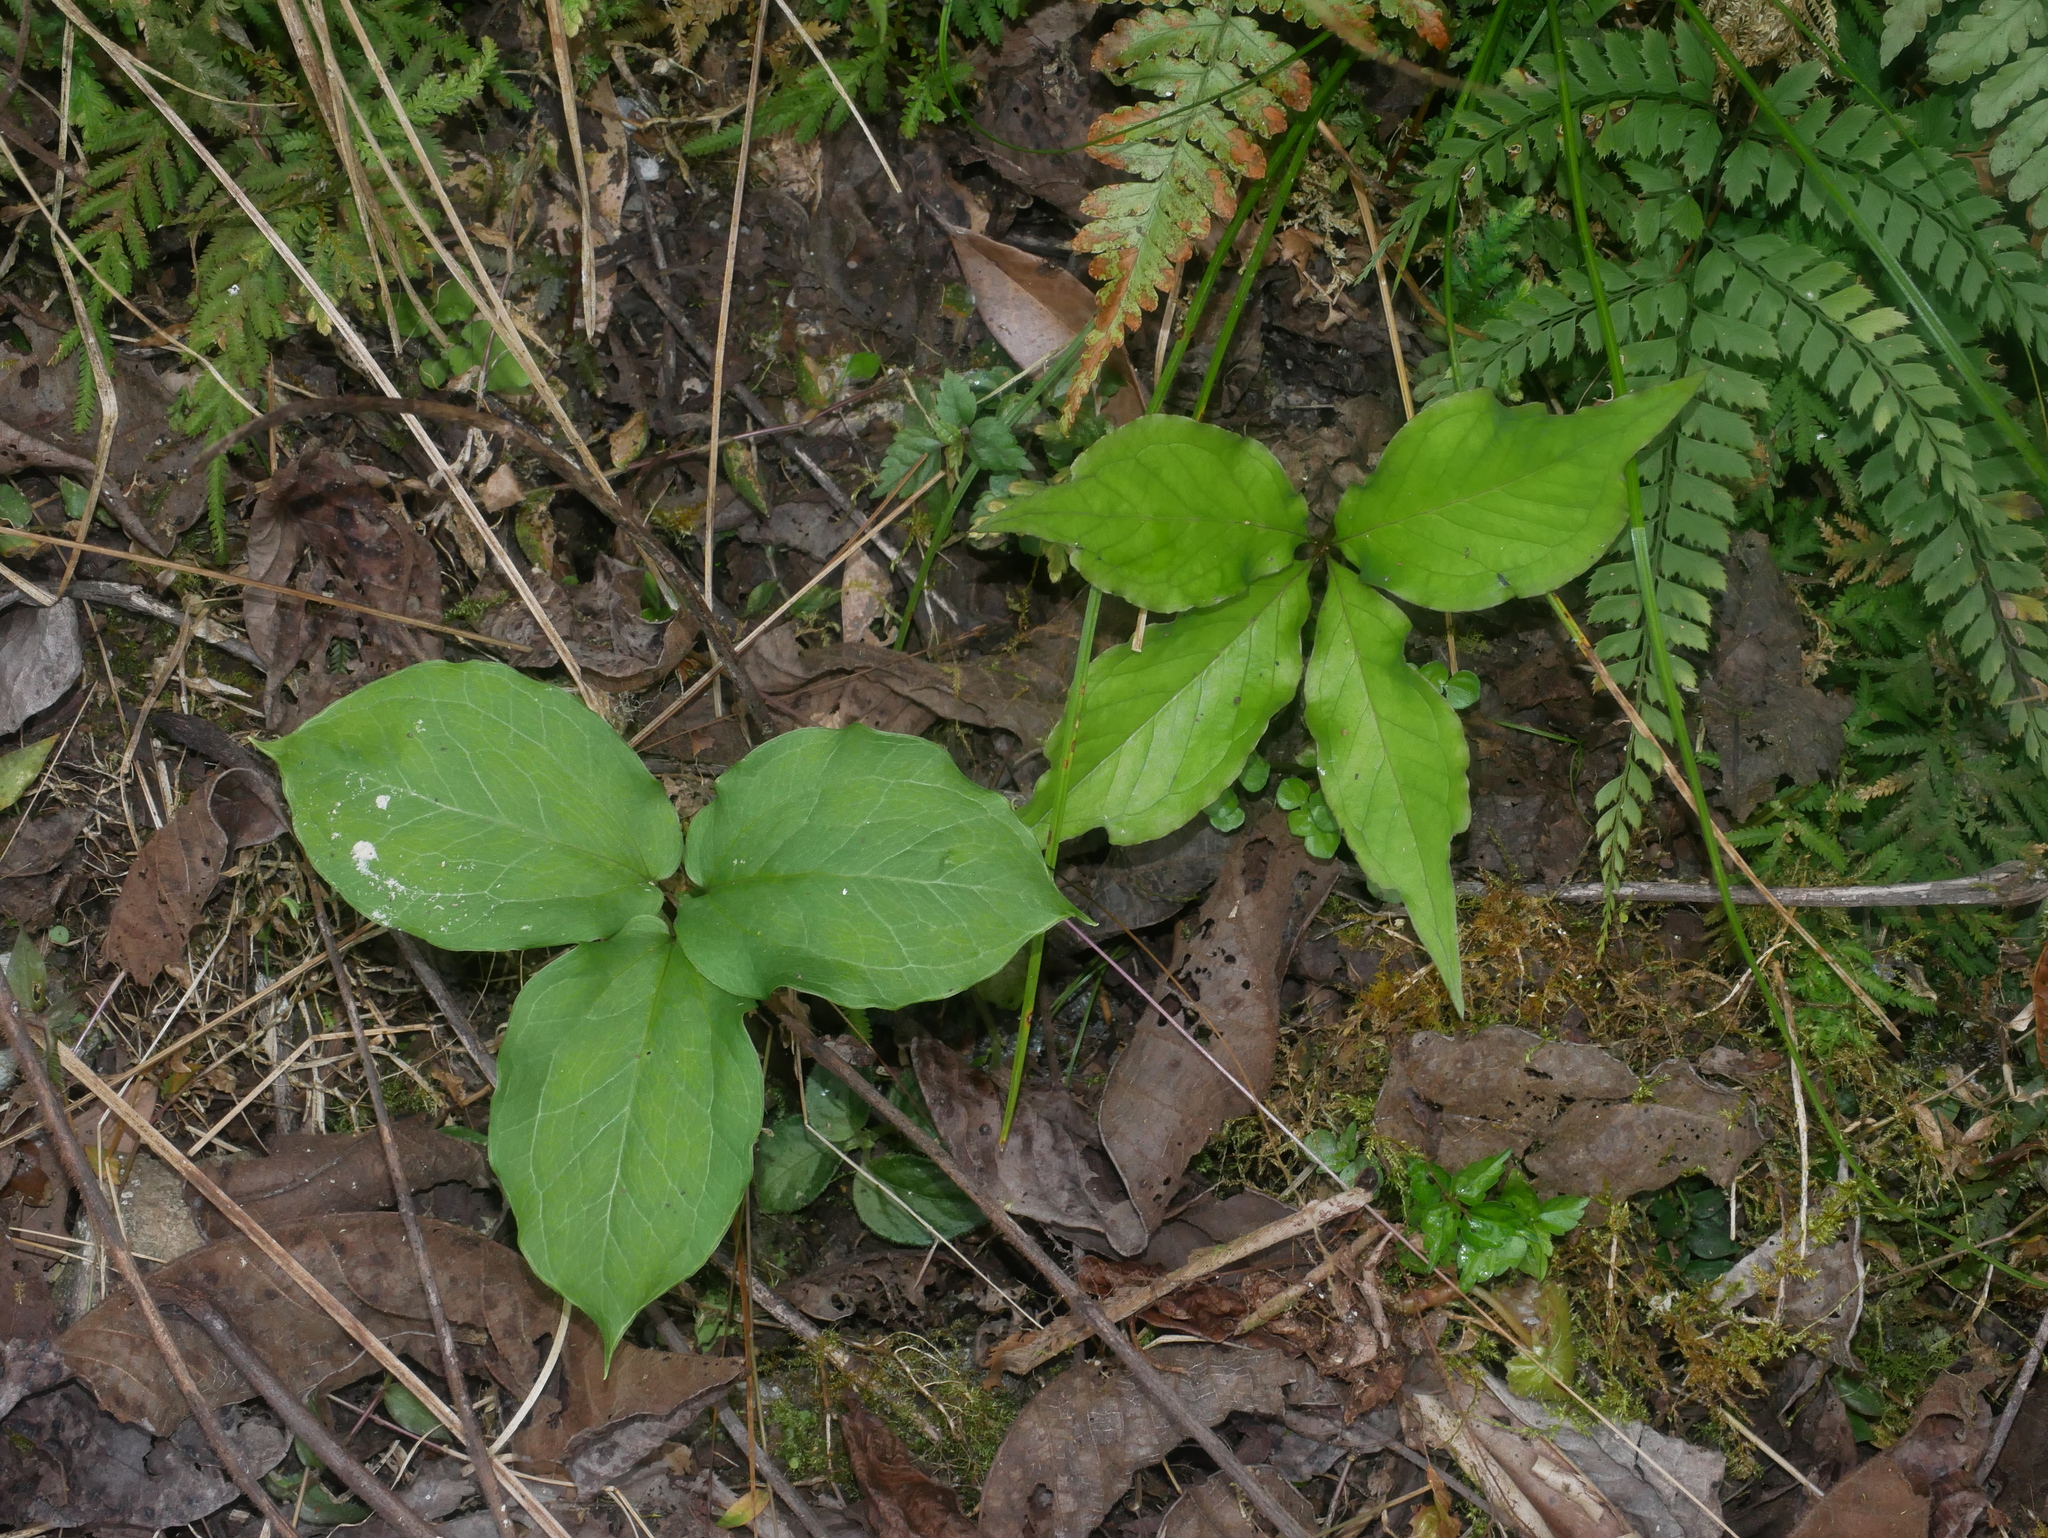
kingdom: Plantae
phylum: Tracheophyta
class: Liliopsida
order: Liliales
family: Melanthiaceae
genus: Paris
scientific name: Paris fargesii
